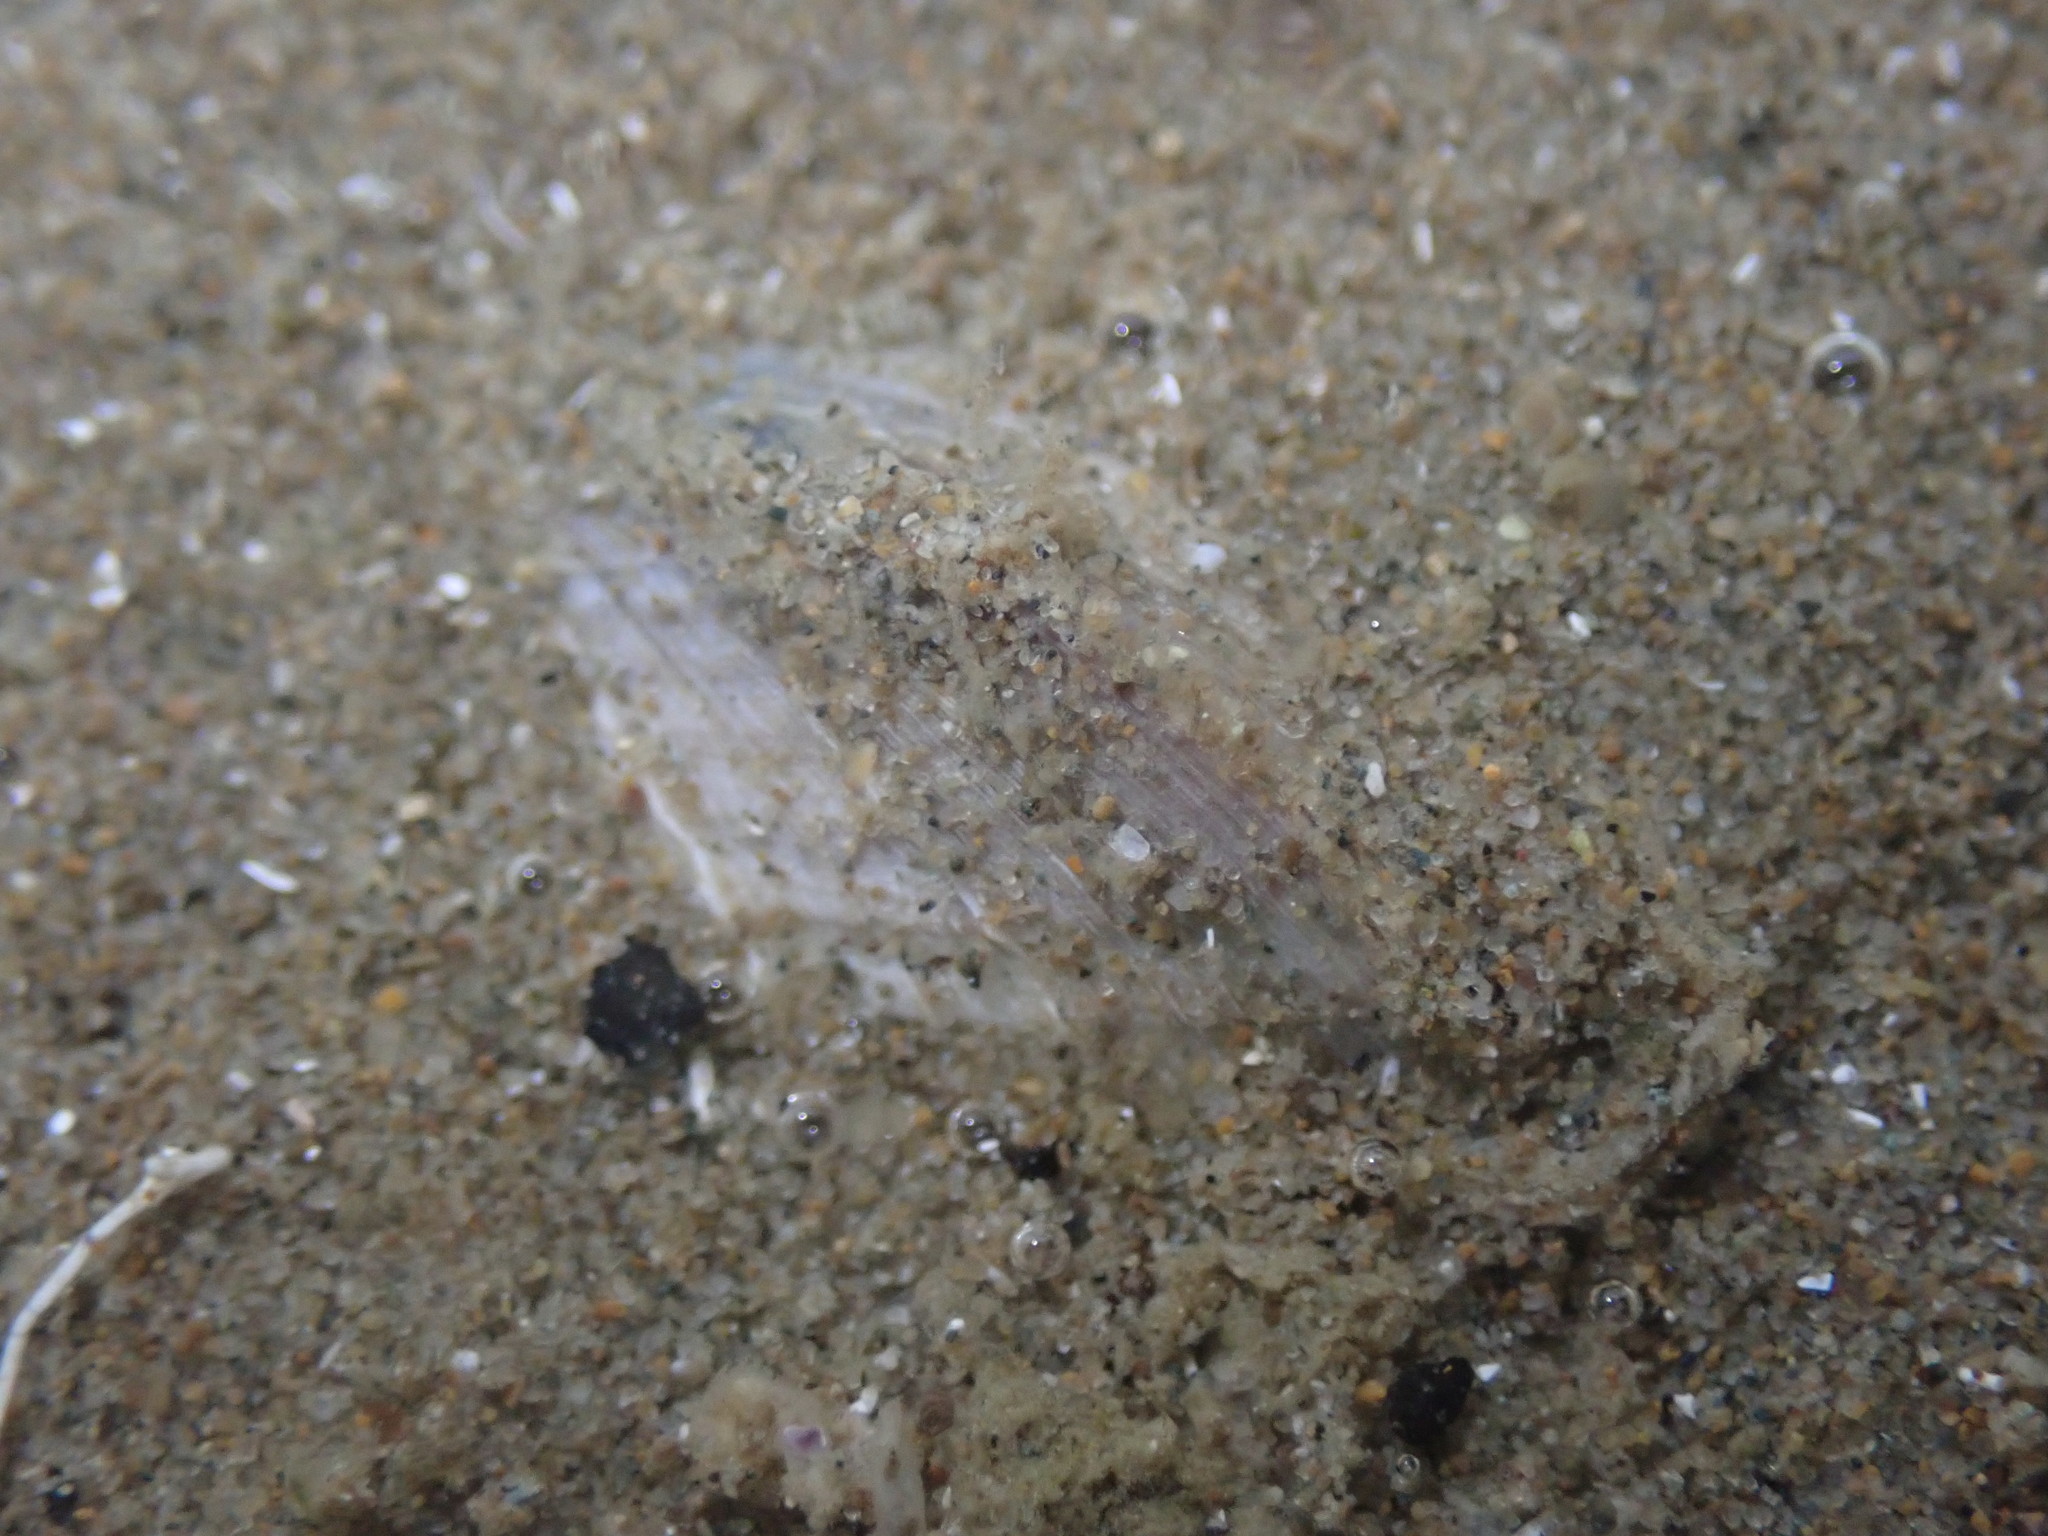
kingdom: Animalia
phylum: Mollusca
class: Bivalvia
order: Venerida
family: Veneridae
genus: Austrovenus
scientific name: Austrovenus stutchburyi
